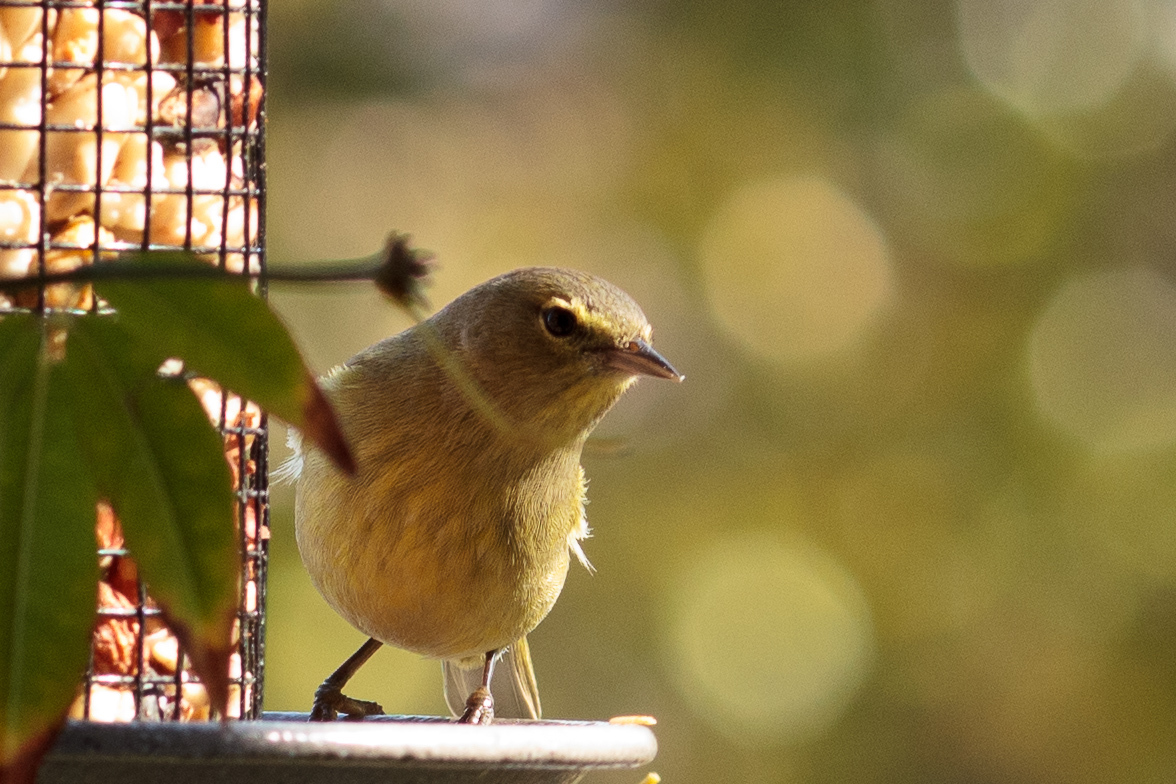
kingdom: Animalia
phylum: Chordata
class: Aves
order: Passeriformes
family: Parulidae
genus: Leiothlypis
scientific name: Leiothlypis celata
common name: Orange-crowned warbler
